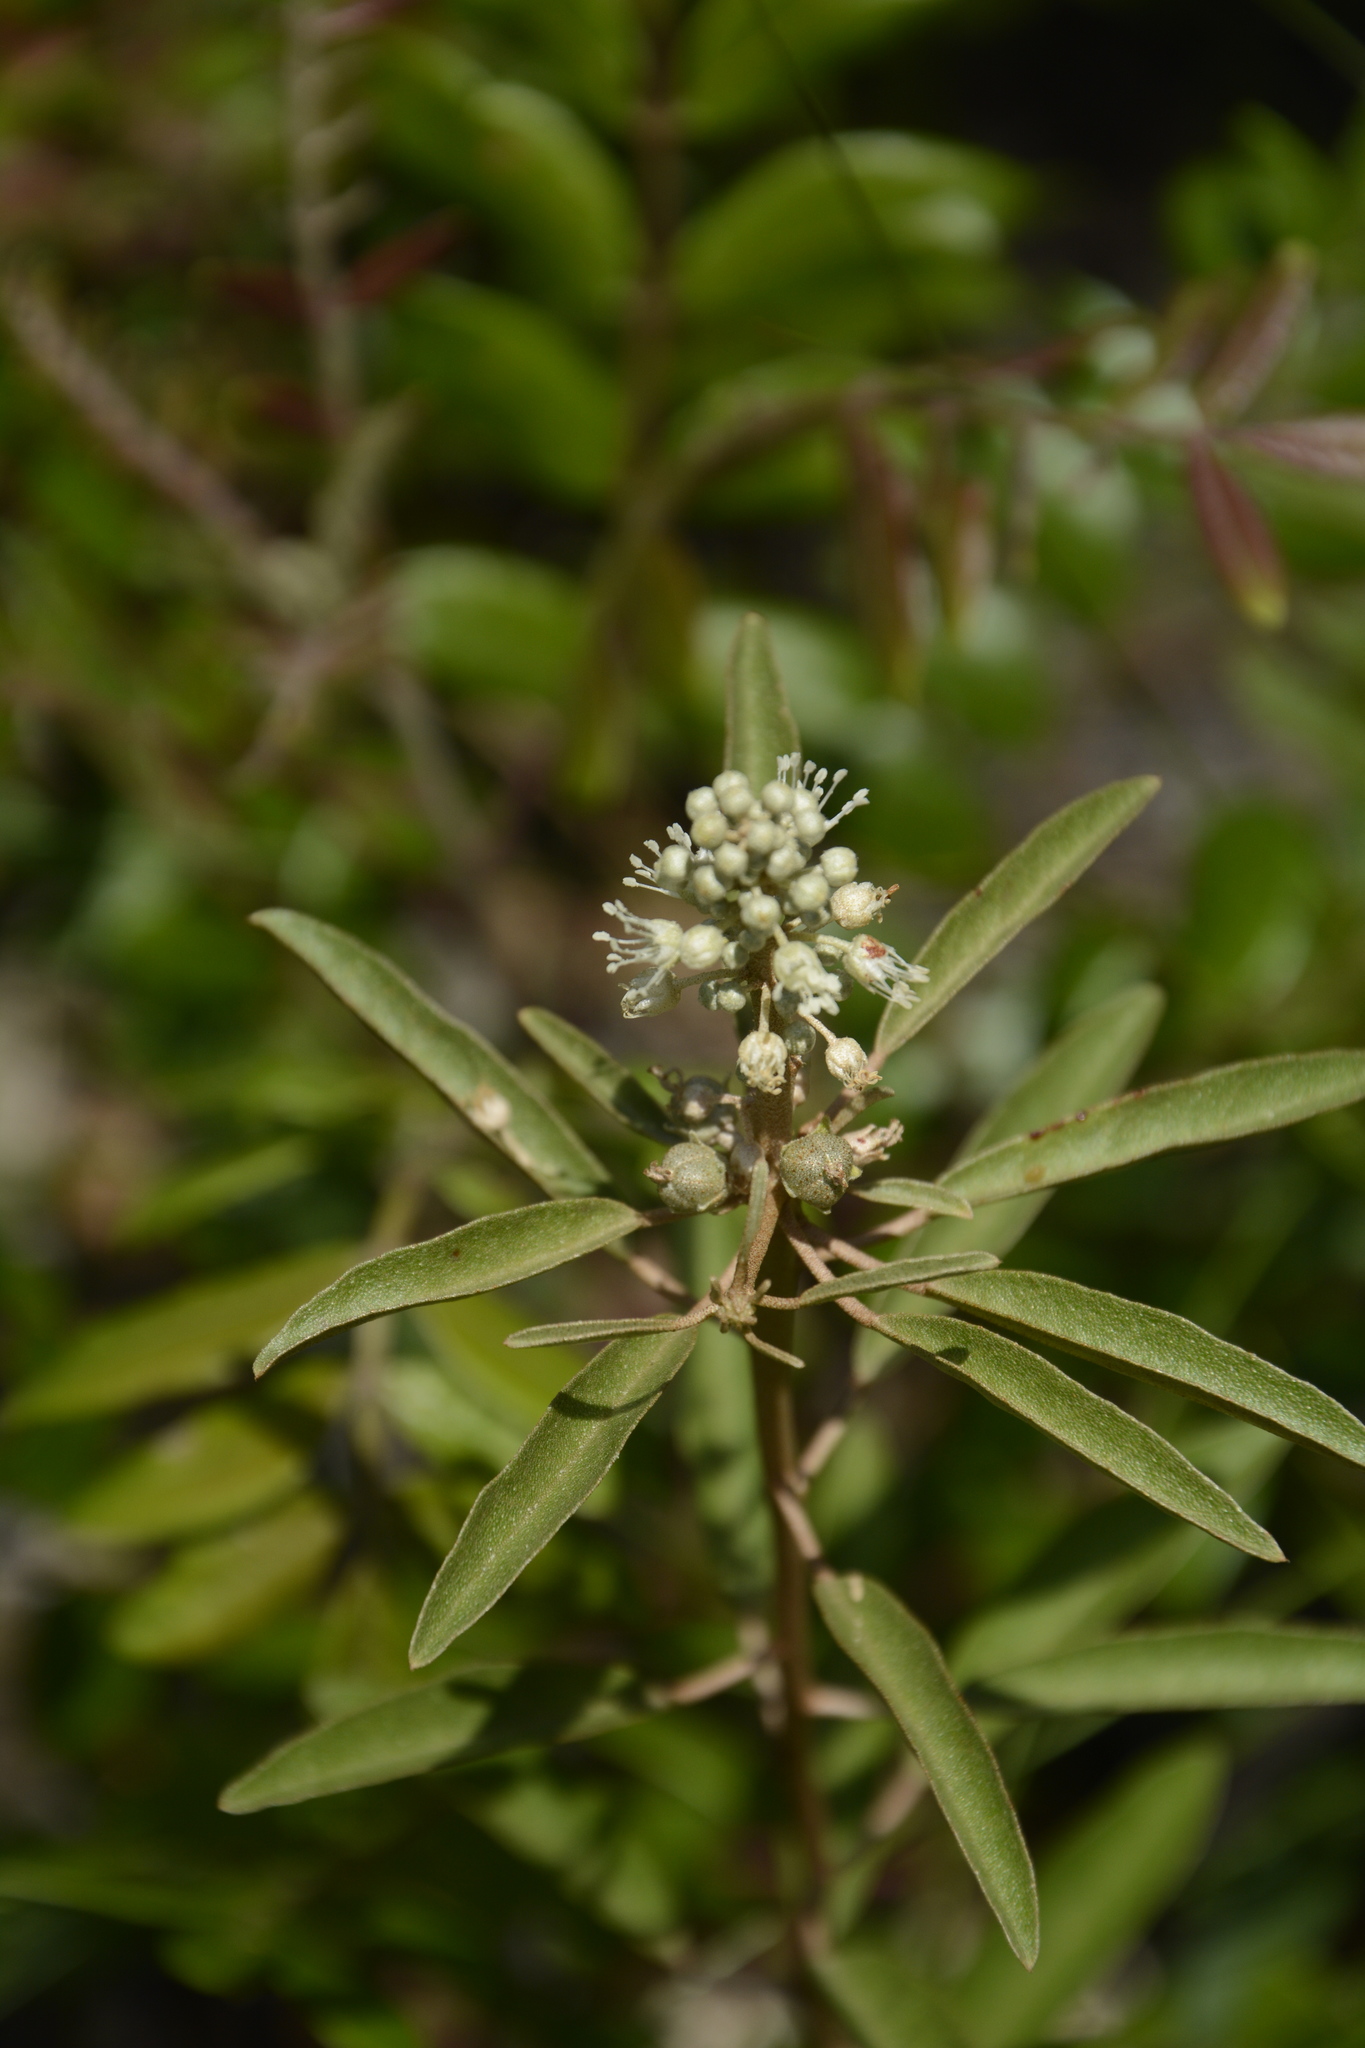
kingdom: Plantae
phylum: Tracheophyta
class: Magnoliopsida
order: Malpighiales
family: Euphorbiaceae
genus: Croton
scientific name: Croton argyranthemus
